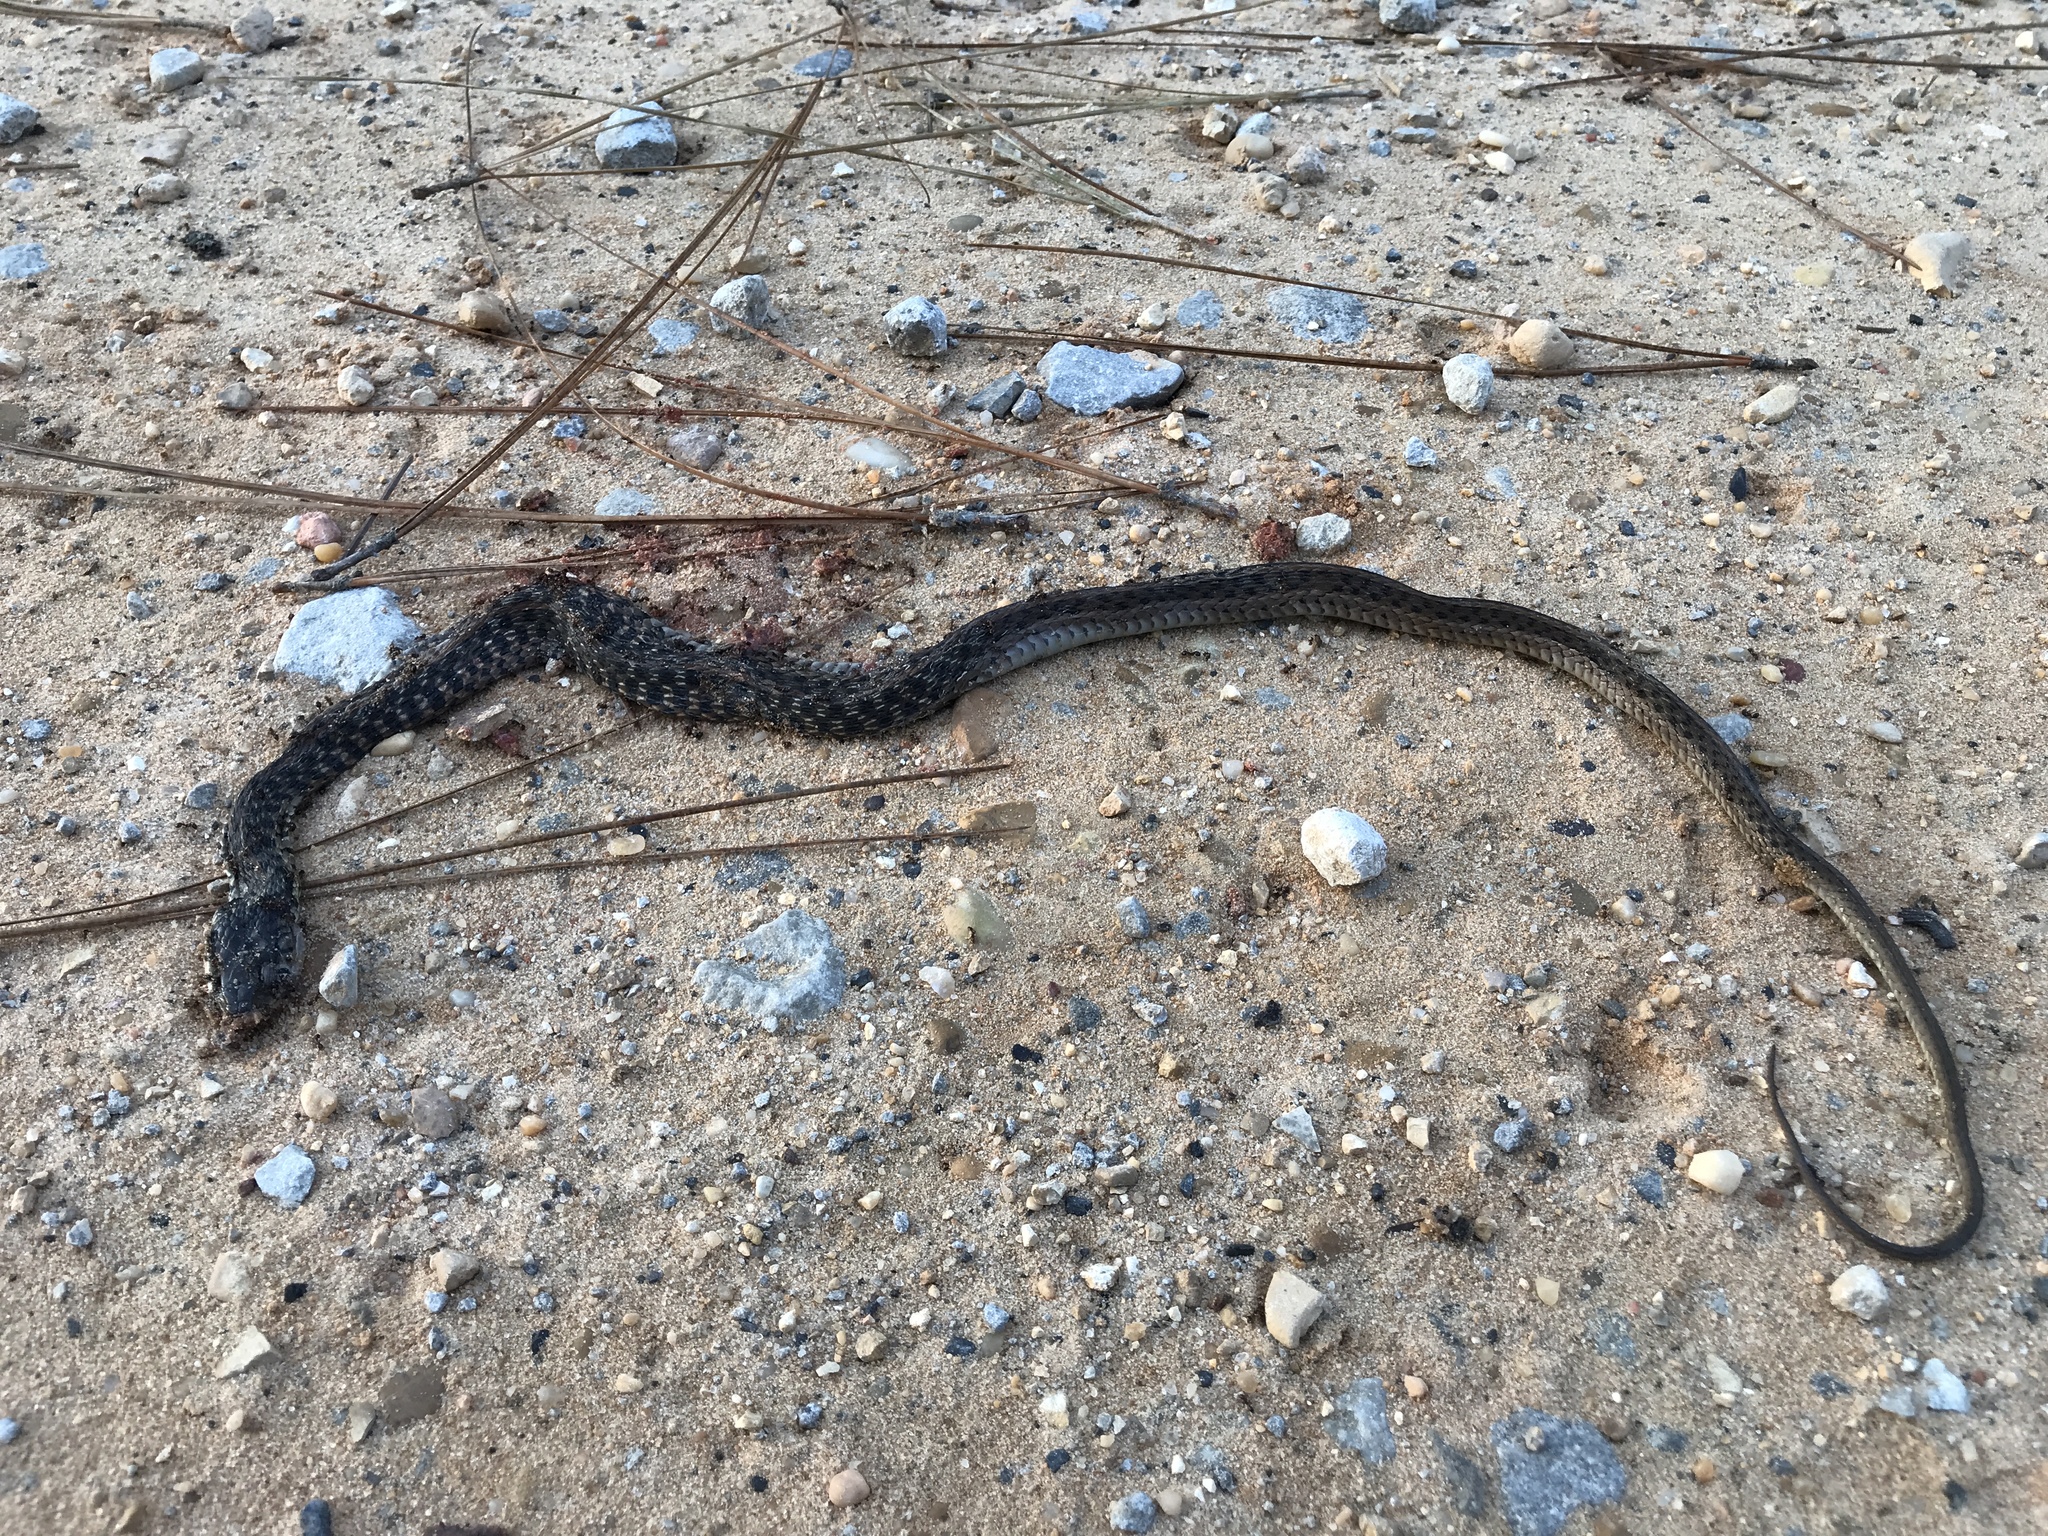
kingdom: Animalia
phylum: Chordata
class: Squamata
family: Colubridae
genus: Thamnophis
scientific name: Thamnophis sirtalis
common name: Common garter snake
